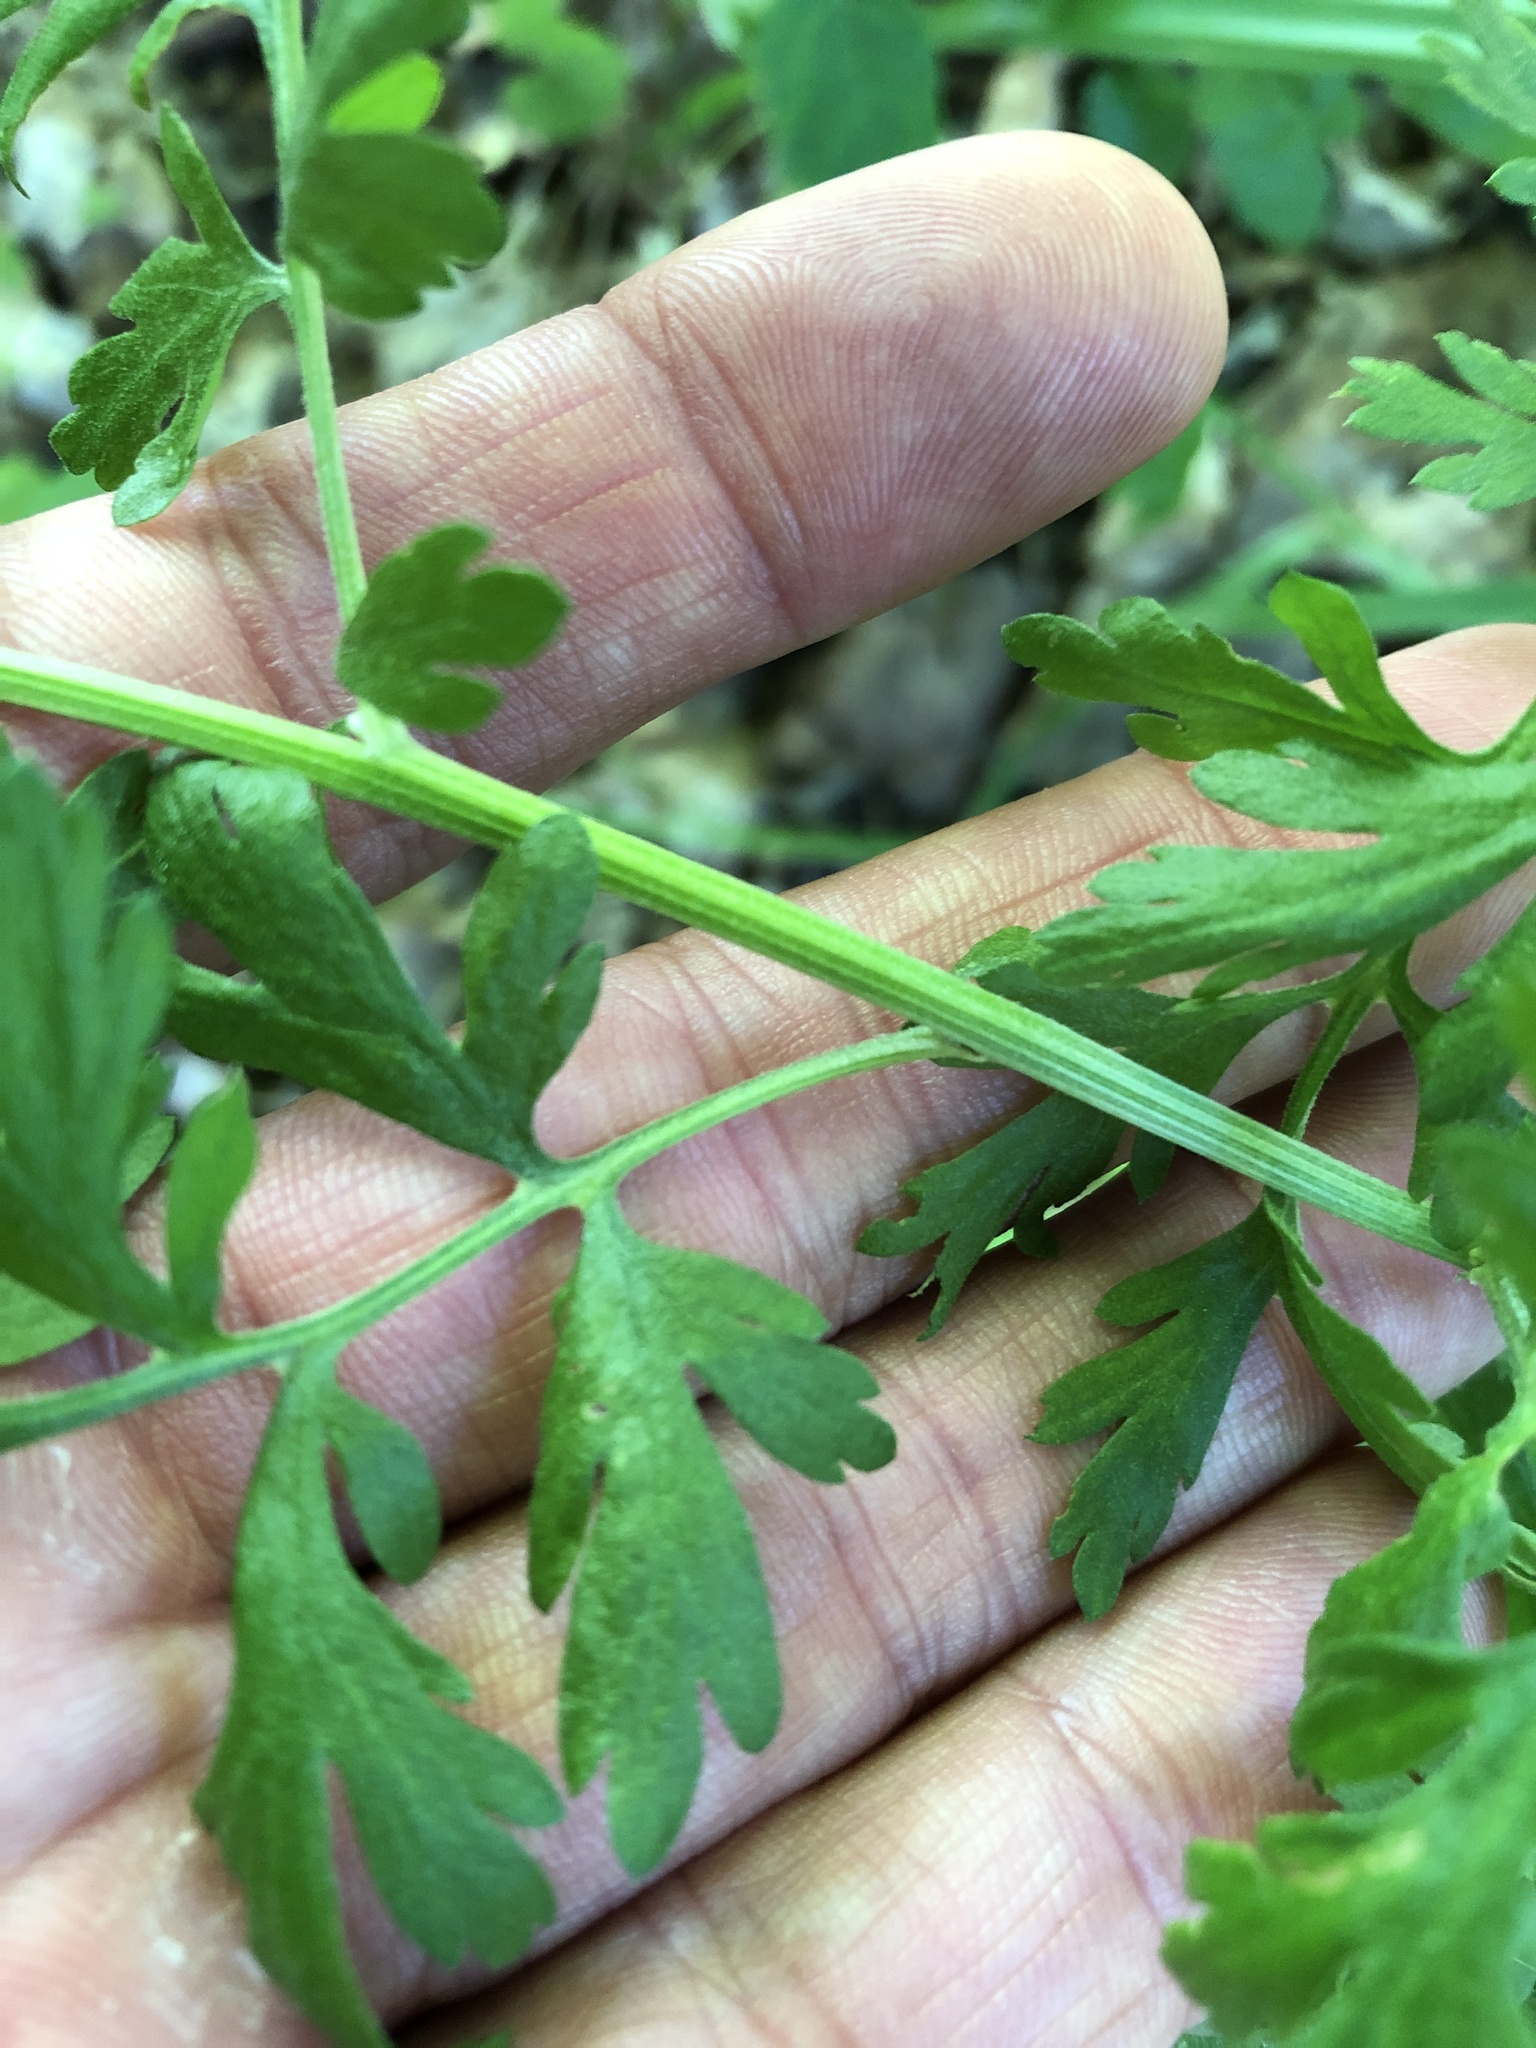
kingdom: Plantae
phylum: Tracheophyta
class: Magnoliopsida
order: Asterales
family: Asteraceae
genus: Tanacetum
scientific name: Tanacetum parthenium
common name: Feverfew
